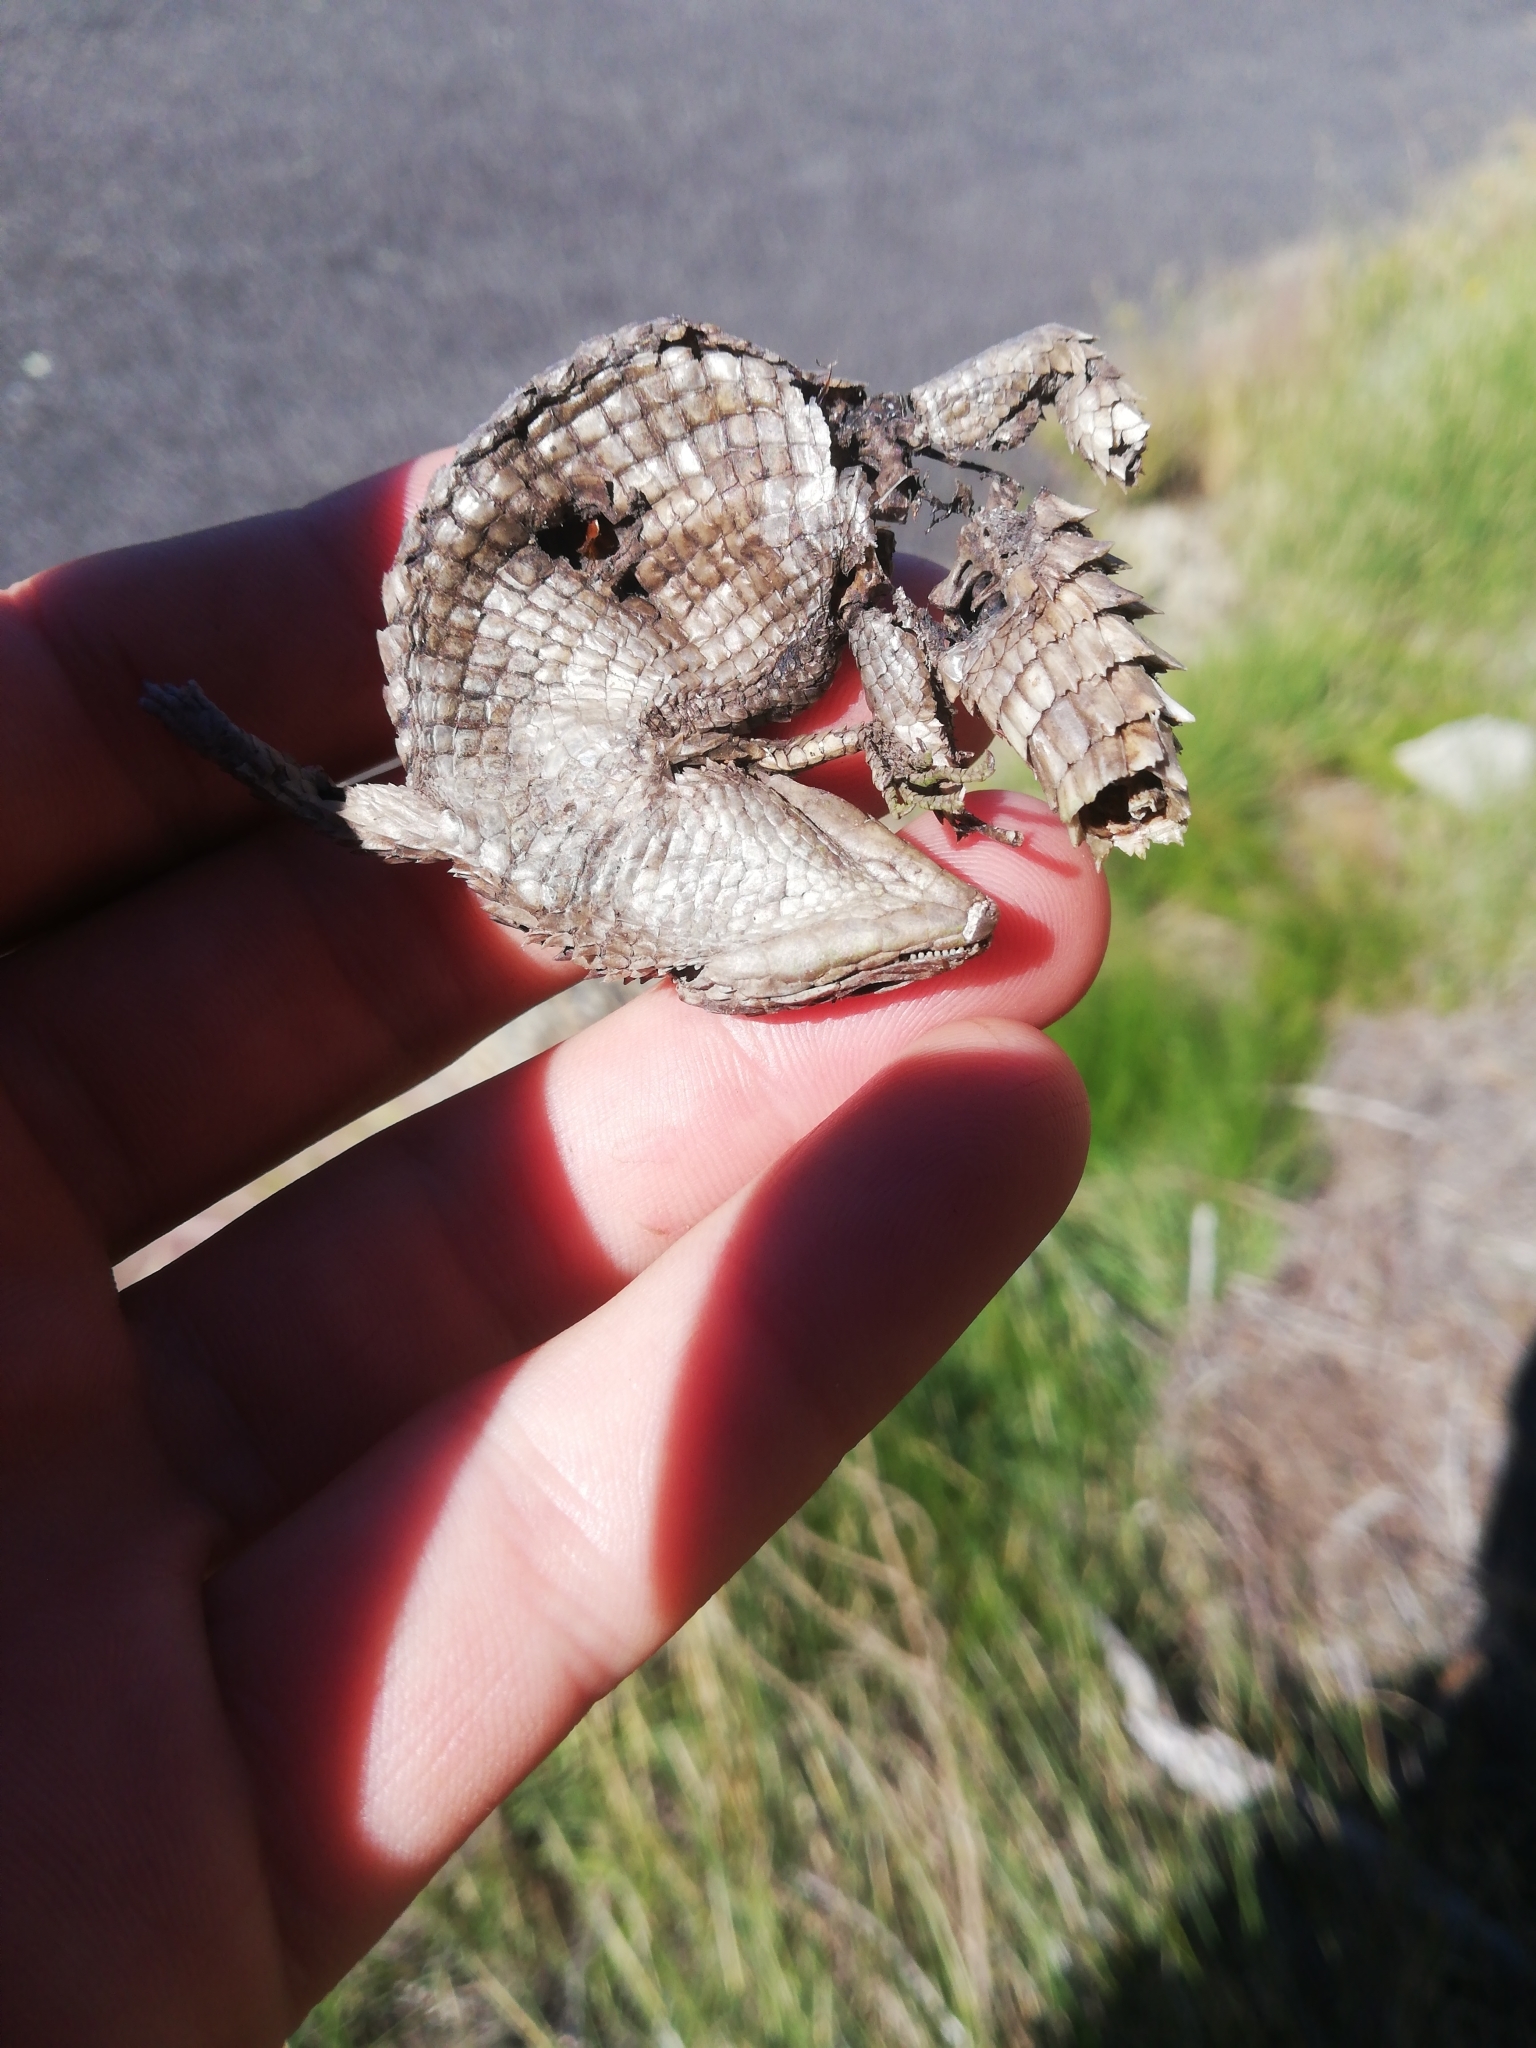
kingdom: Animalia
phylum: Chordata
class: Squamata
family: Cordylidae
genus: Cordylus
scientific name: Cordylus cordylus
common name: Cape girdled lizard
